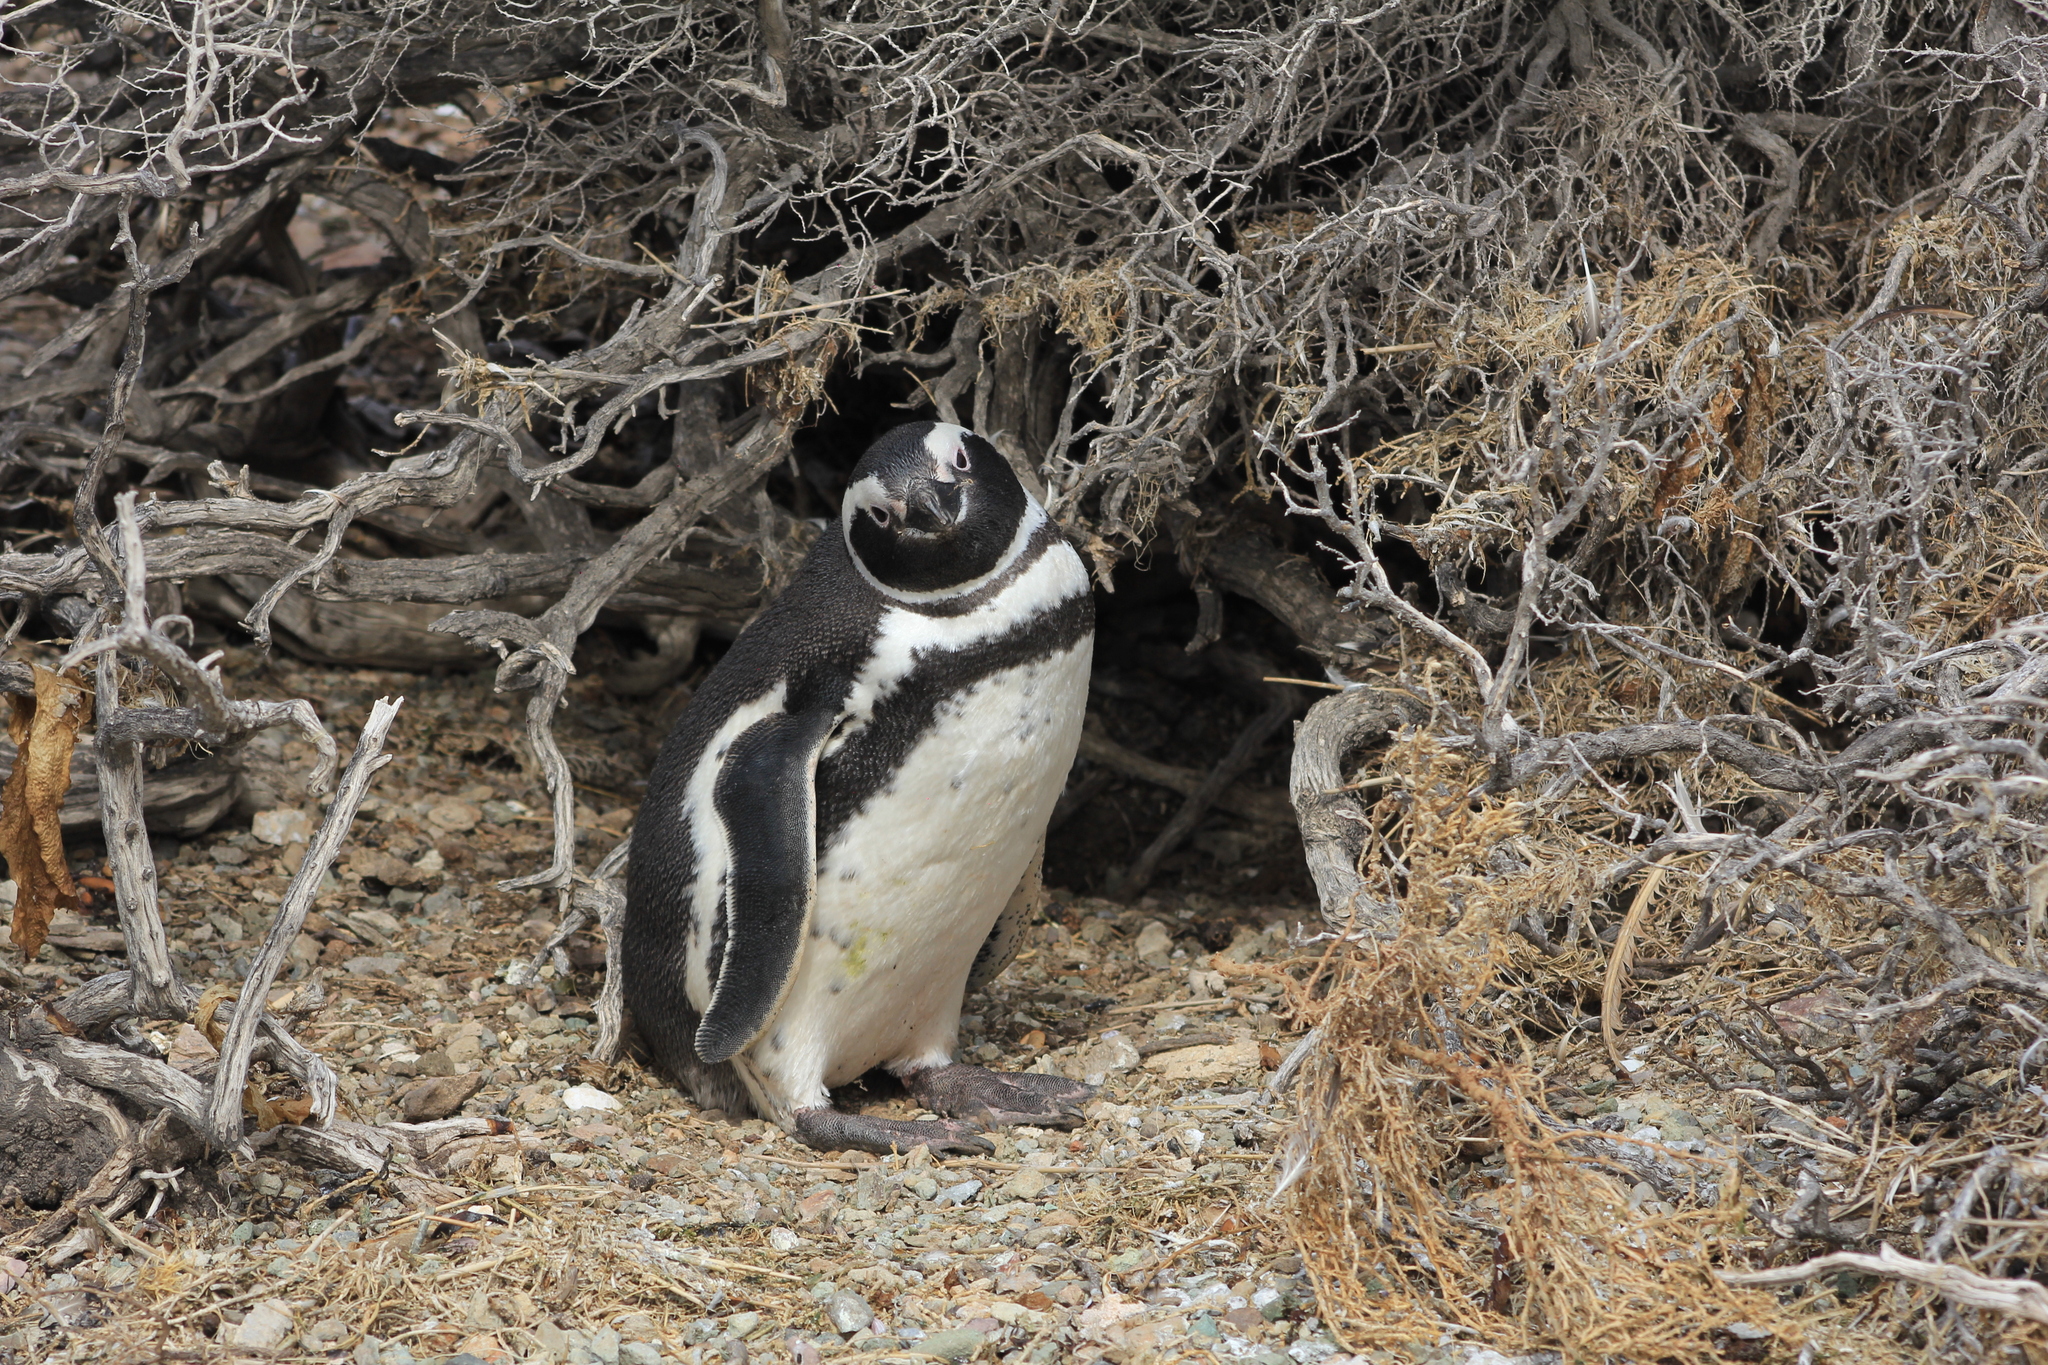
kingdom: Animalia
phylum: Chordata
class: Aves
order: Sphenisciformes
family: Spheniscidae
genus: Spheniscus
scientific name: Spheniscus magellanicus
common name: Magellanic penguin
